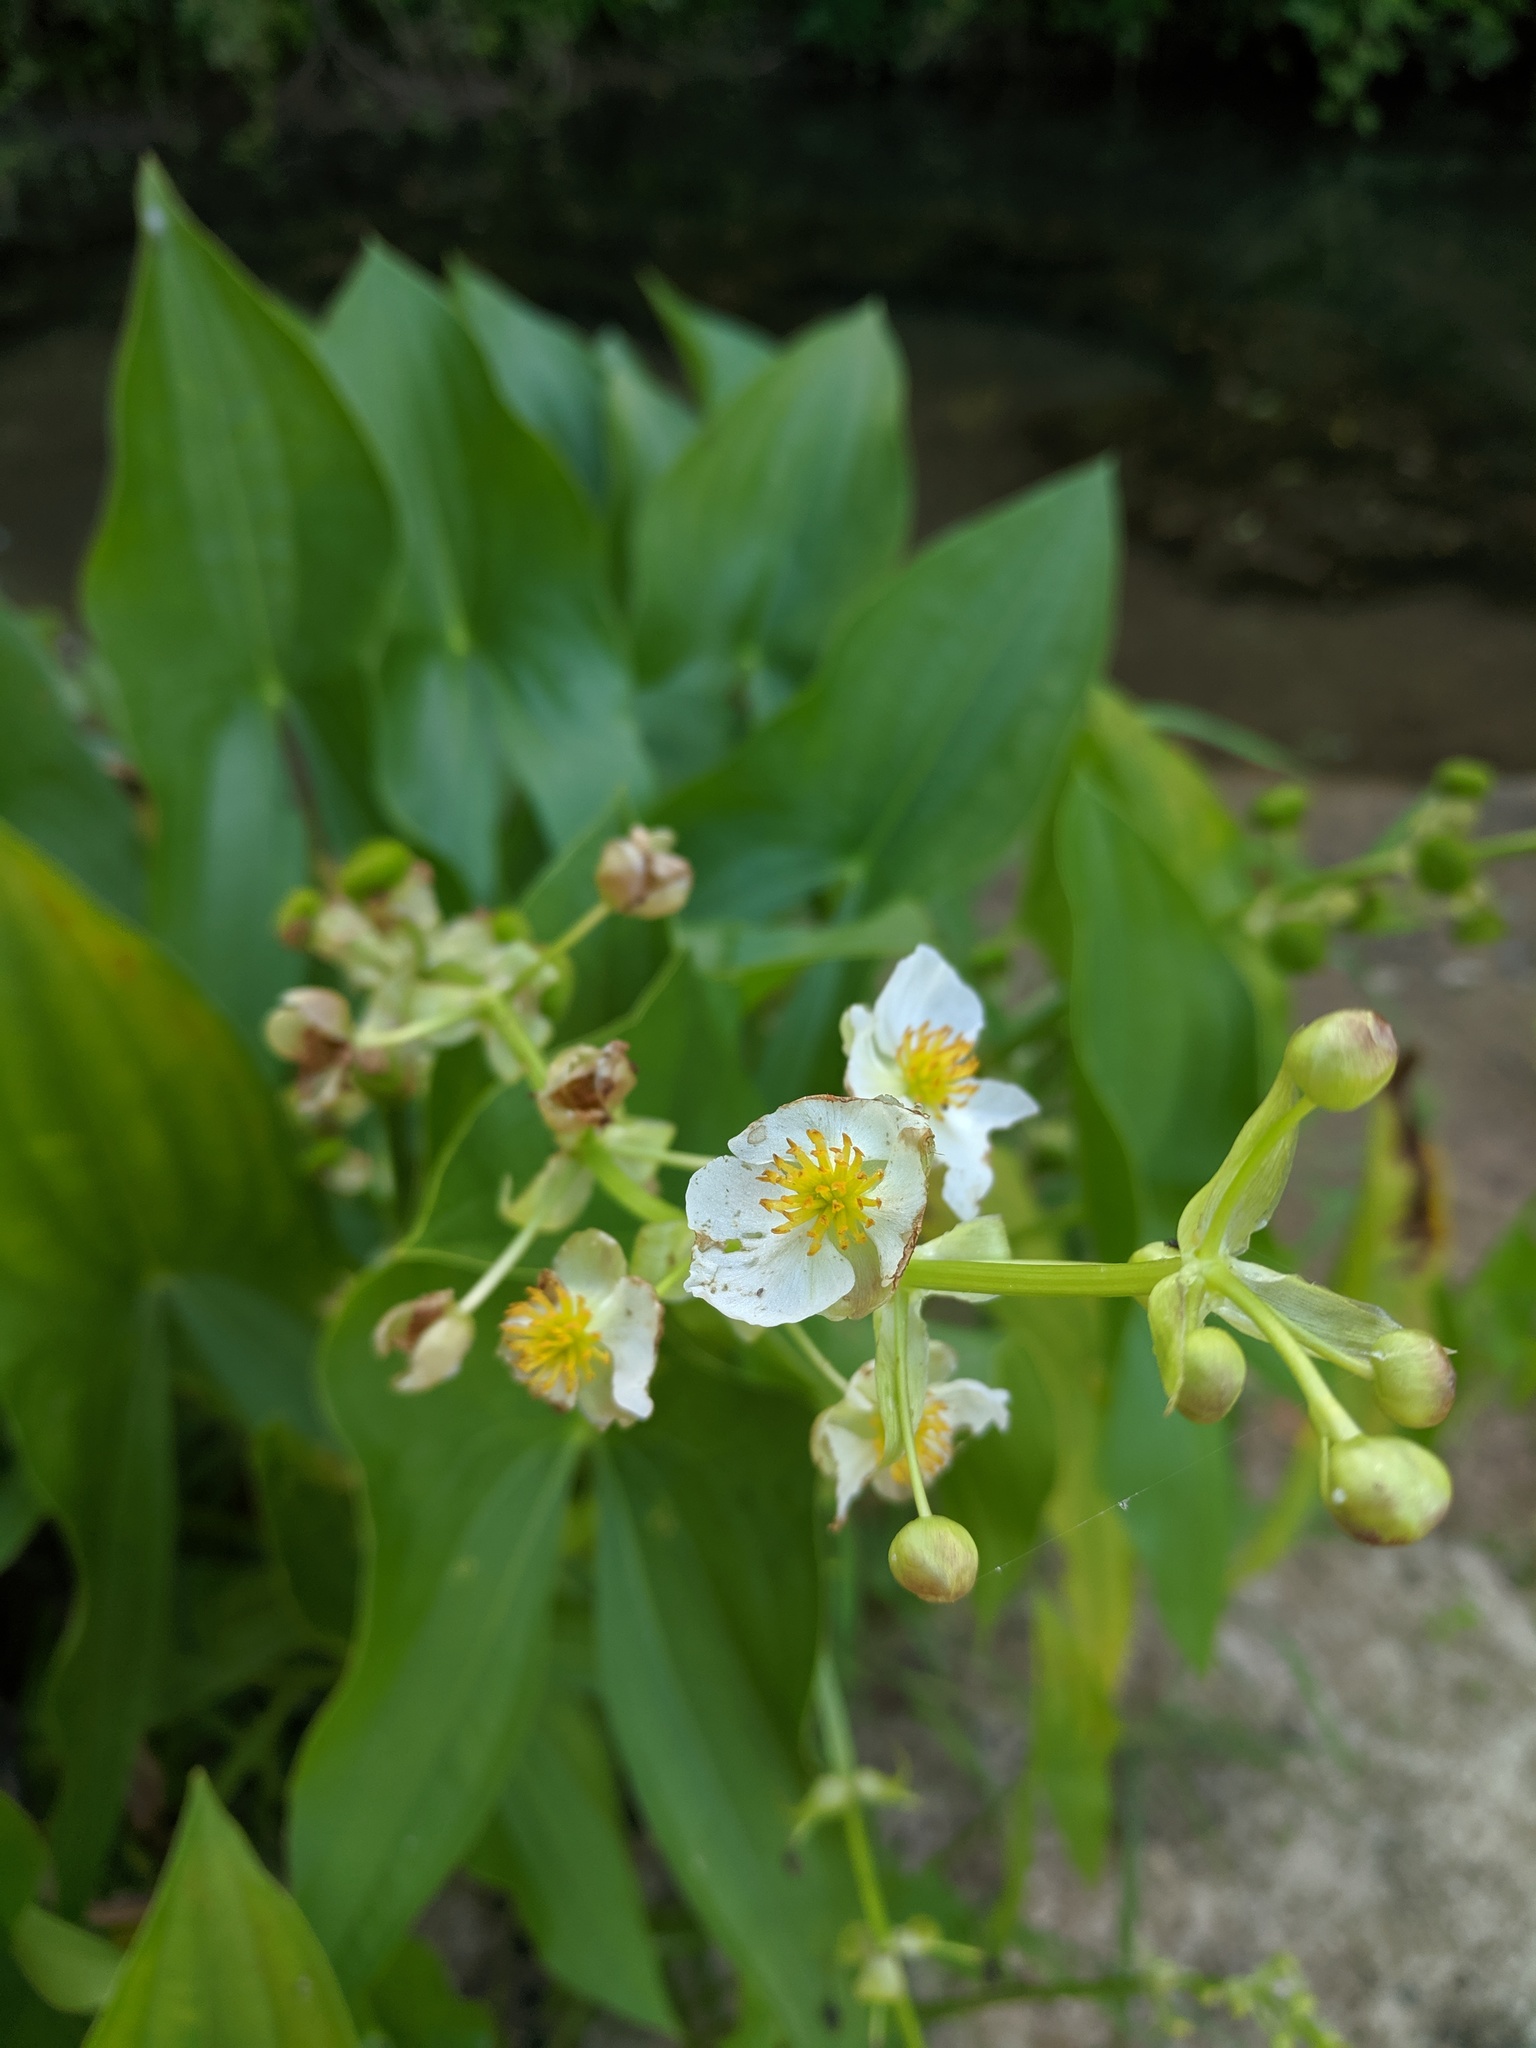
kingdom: Plantae
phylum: Tracheophyta
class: Liliopsida
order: Alismatales
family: Alismataceae
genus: Sagittaria
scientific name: Sagittaria brevirostra
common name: Midwestern arrowhead
